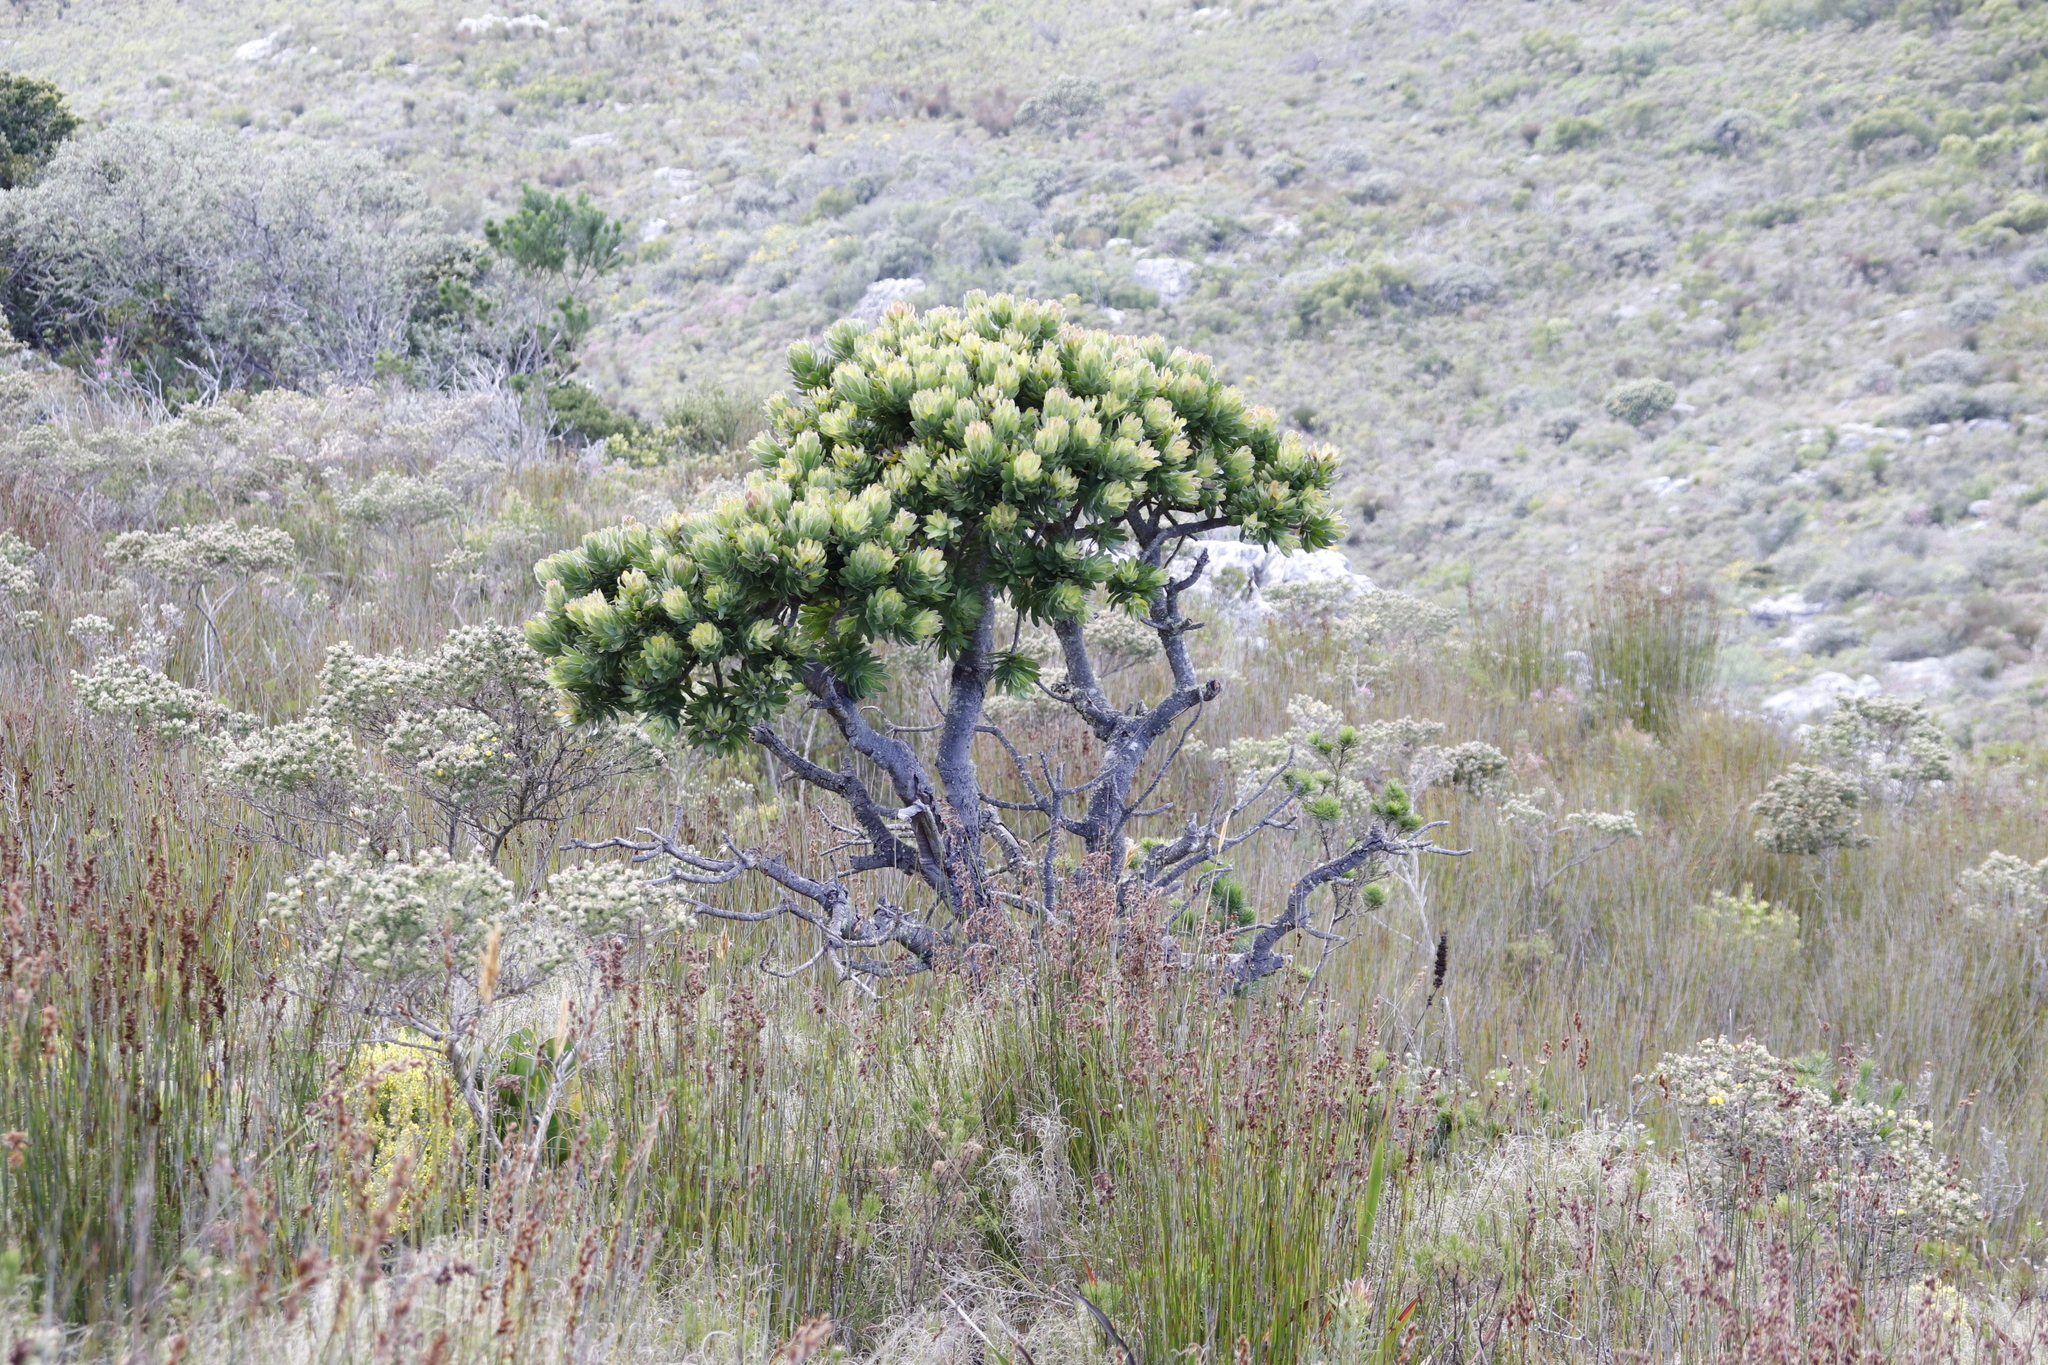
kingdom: Plantae
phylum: Tracheophyta
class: Magnoliopsida
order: Proteales
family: Proteaceae
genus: Mimetes
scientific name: Mimetes fimbriifolius
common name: Fringed bottlebrush
